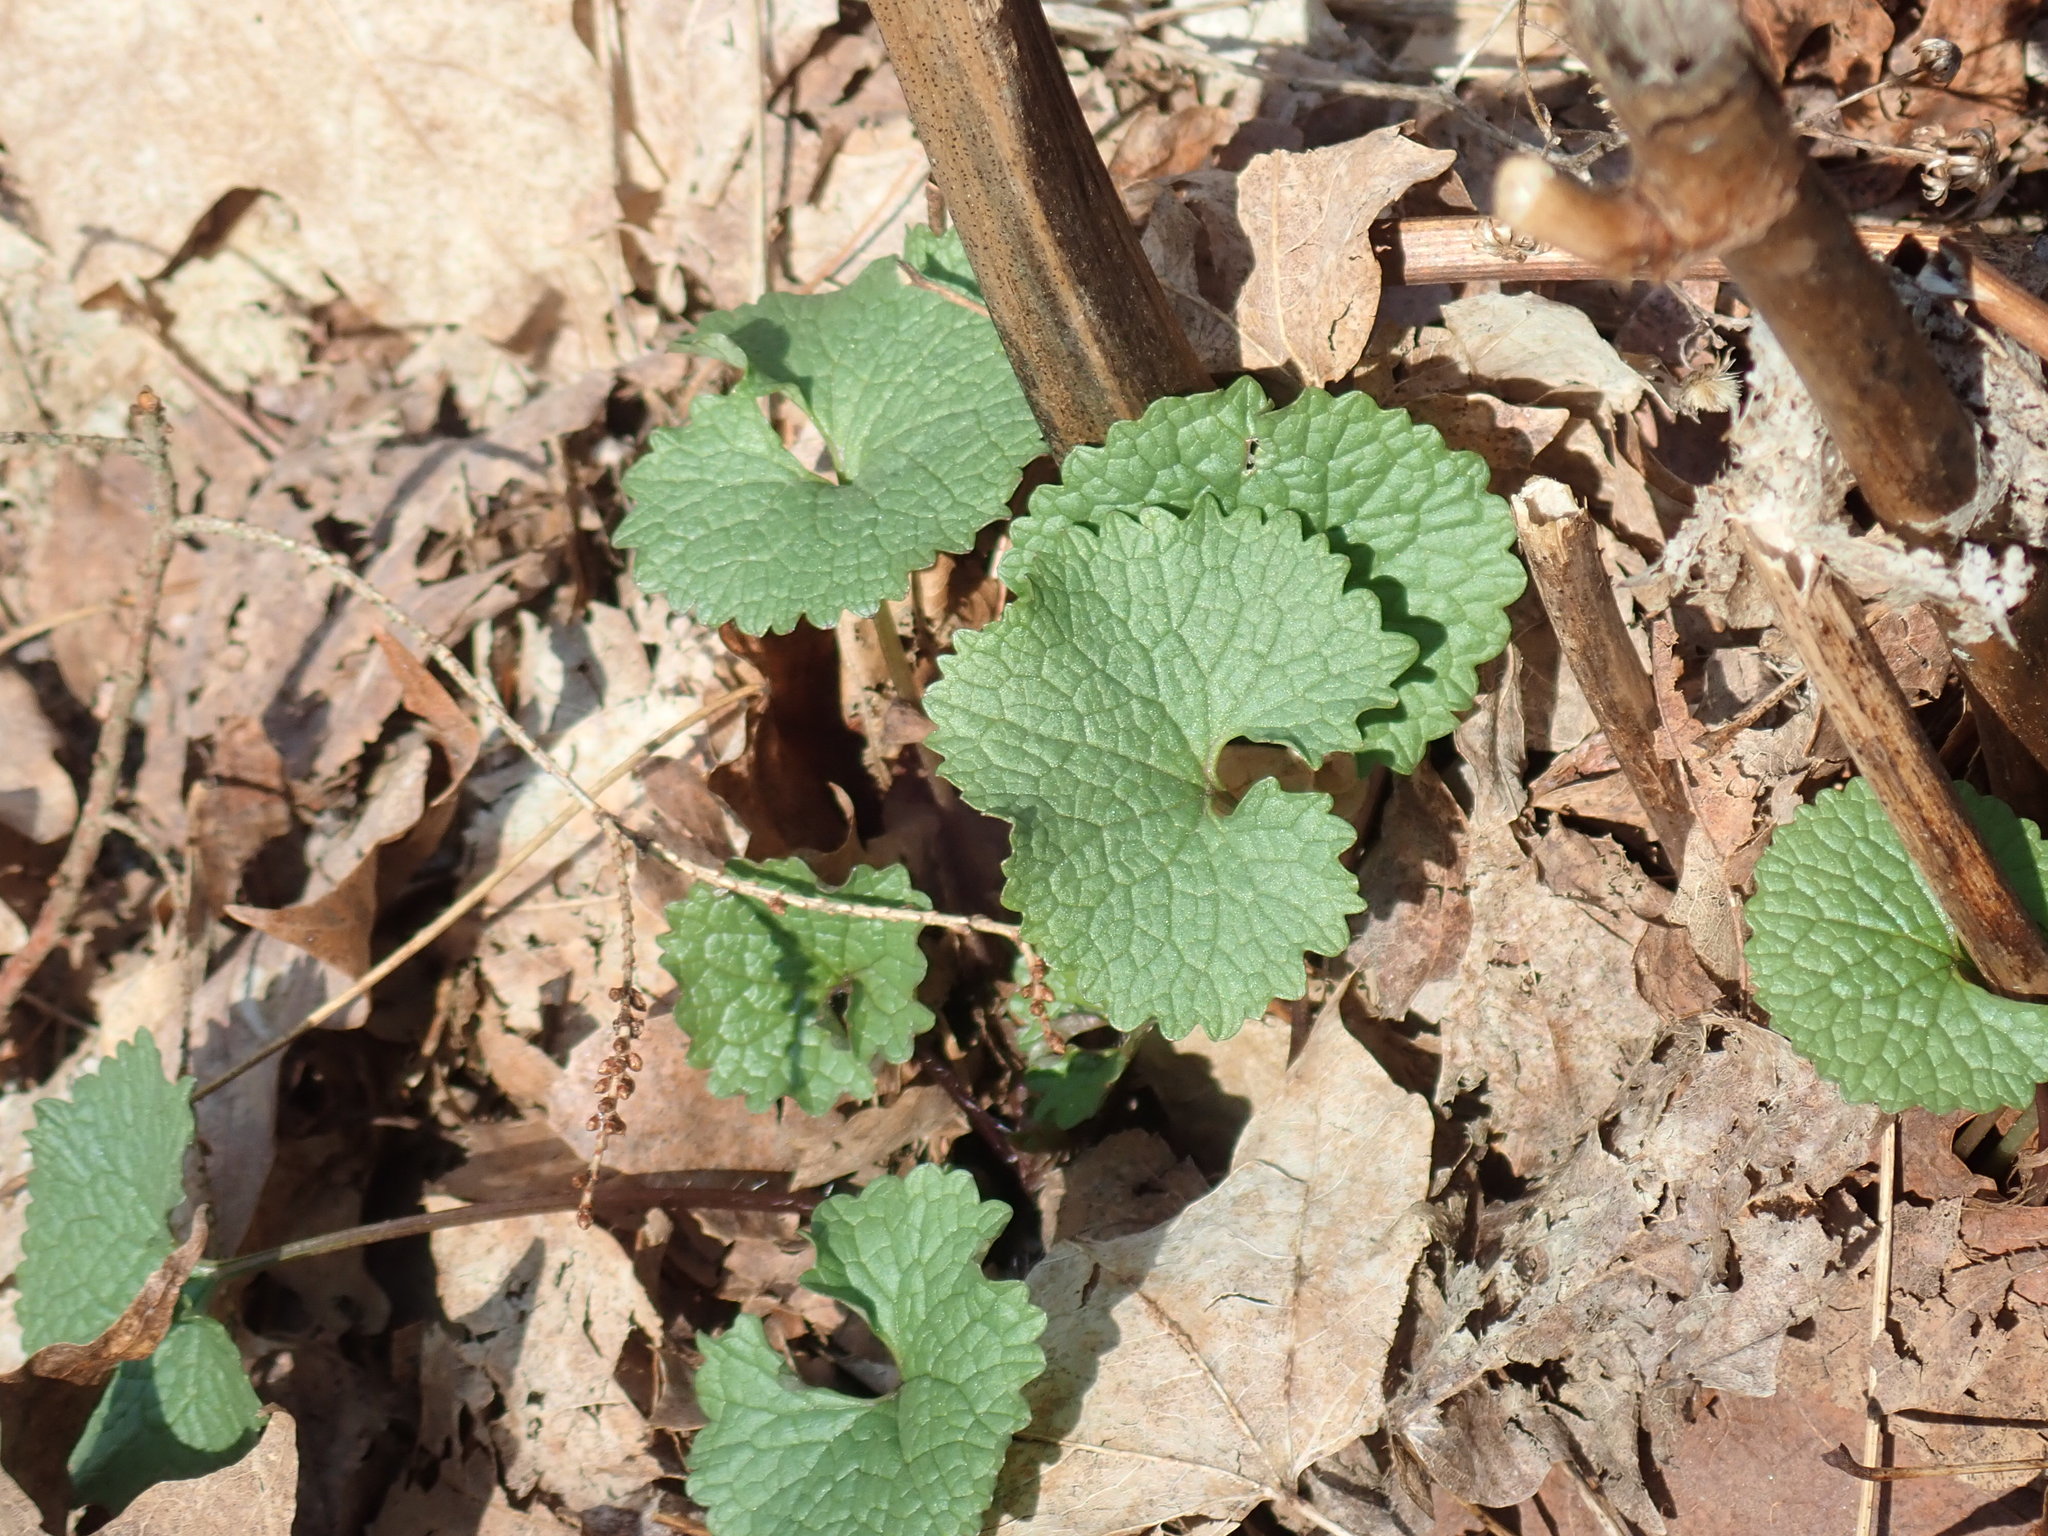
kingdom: Plantae
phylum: Tracheophyta
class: Magnoliopsida
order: Brassicales
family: Brassicaceae
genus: Alliaria
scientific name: Alliaria petiolata
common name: Garlic mustard
